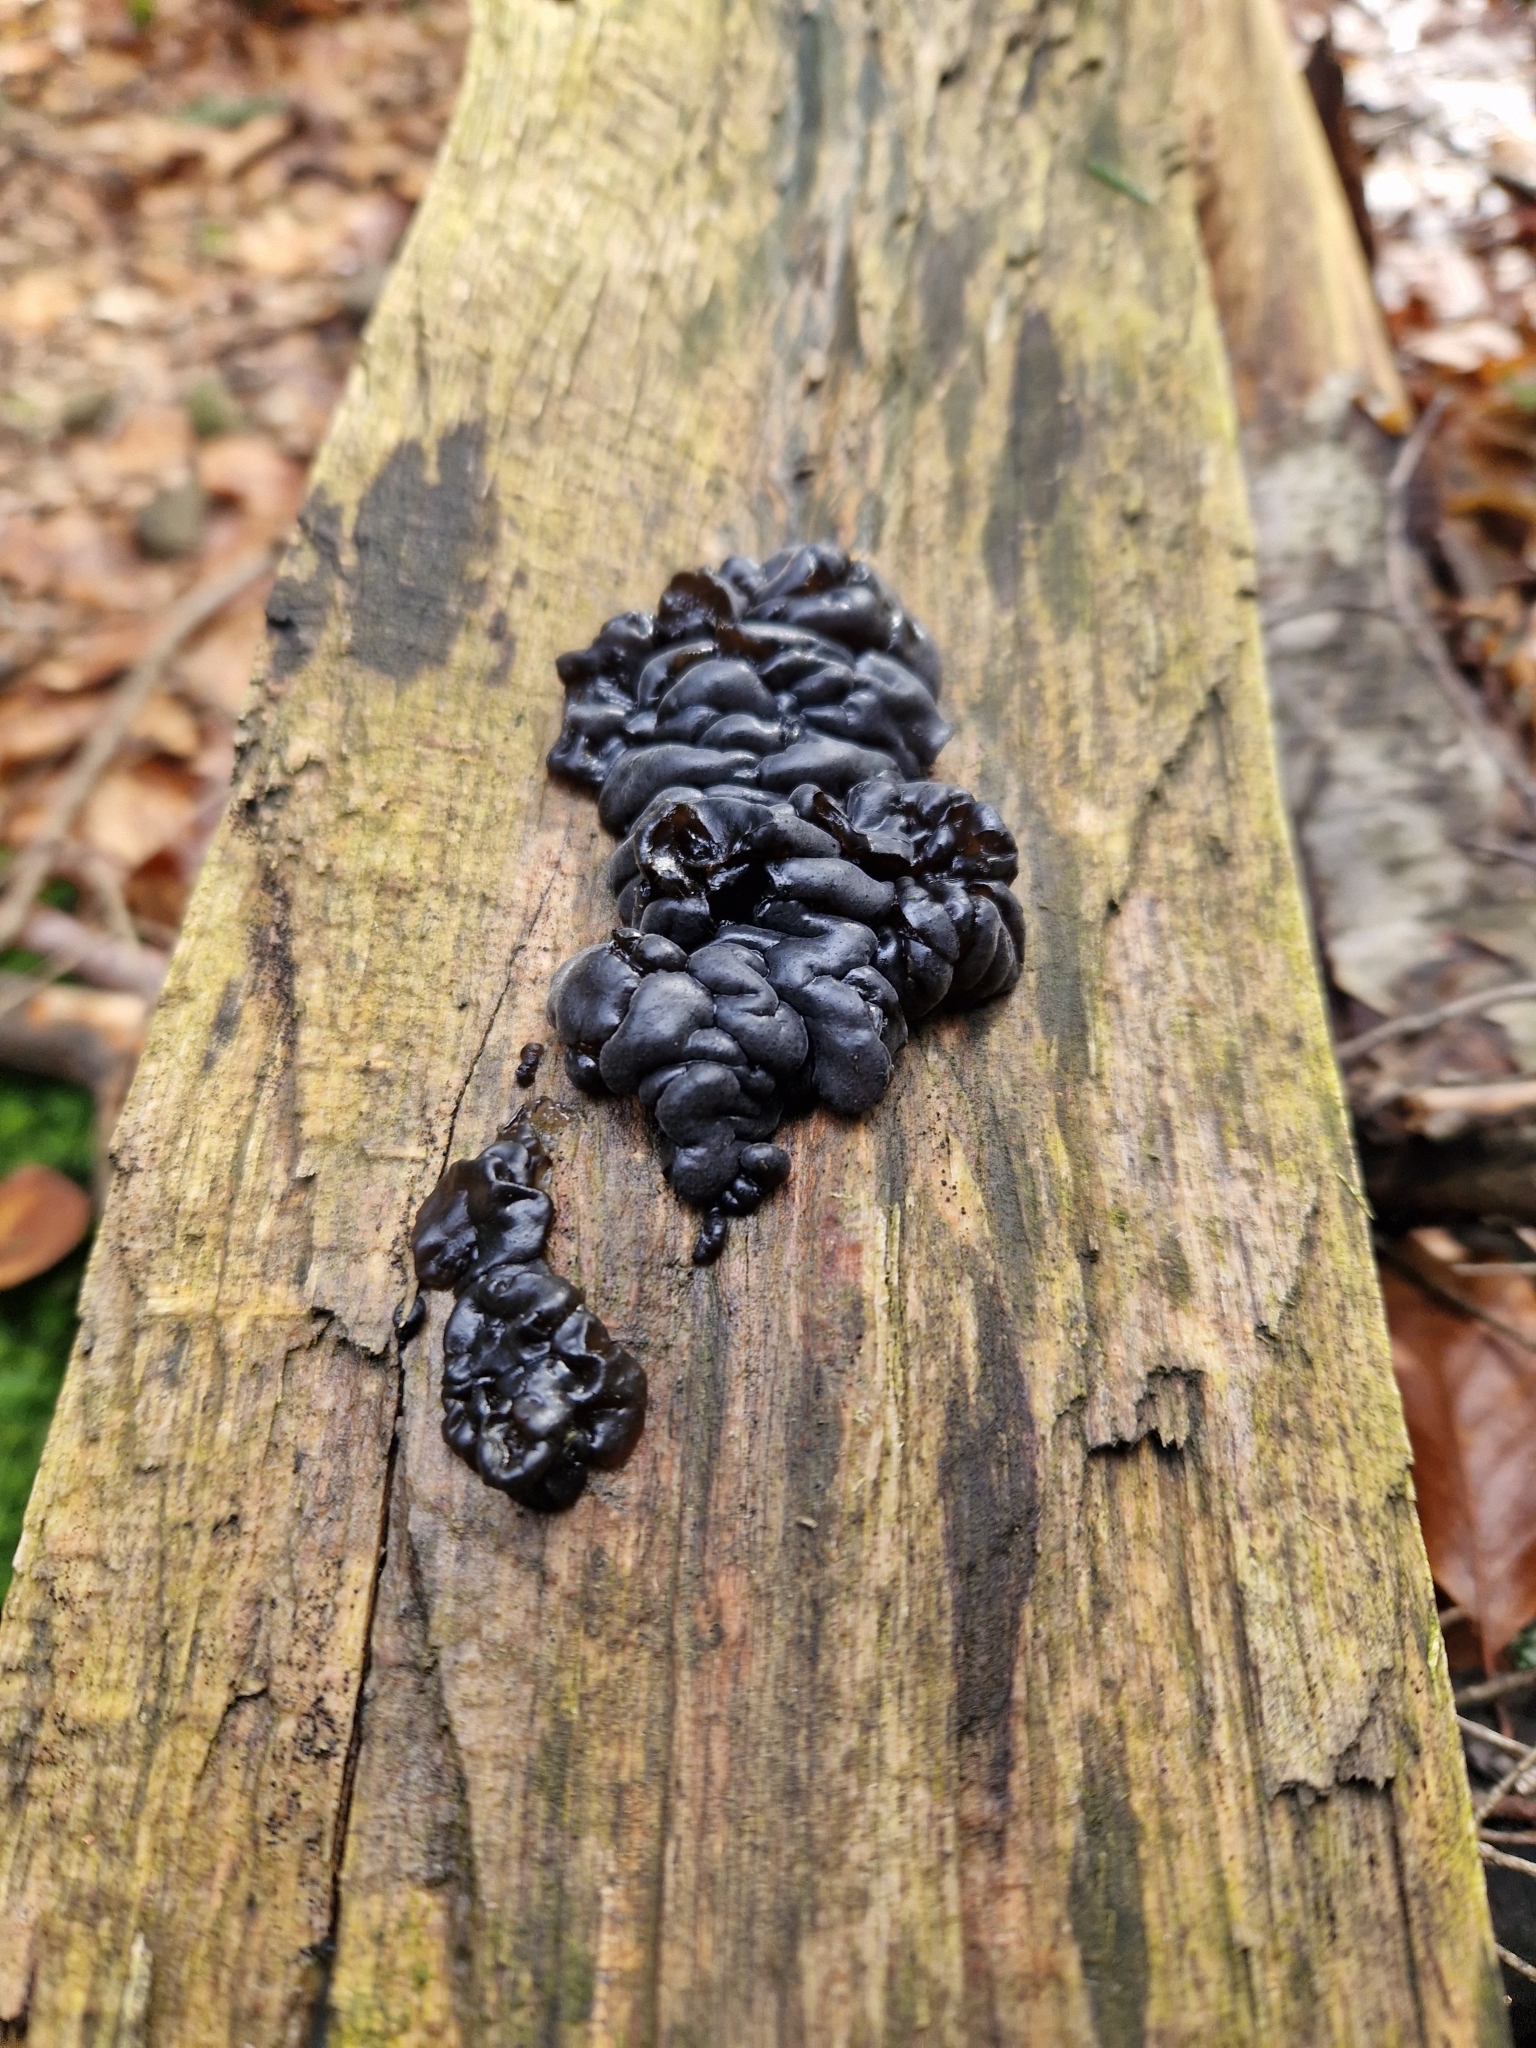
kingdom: Fungi
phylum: Basidiomycota
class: Agaricomycetes
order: Auriculariales
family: Auriculariaceae
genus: Exidia
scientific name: Exidia nigricans
